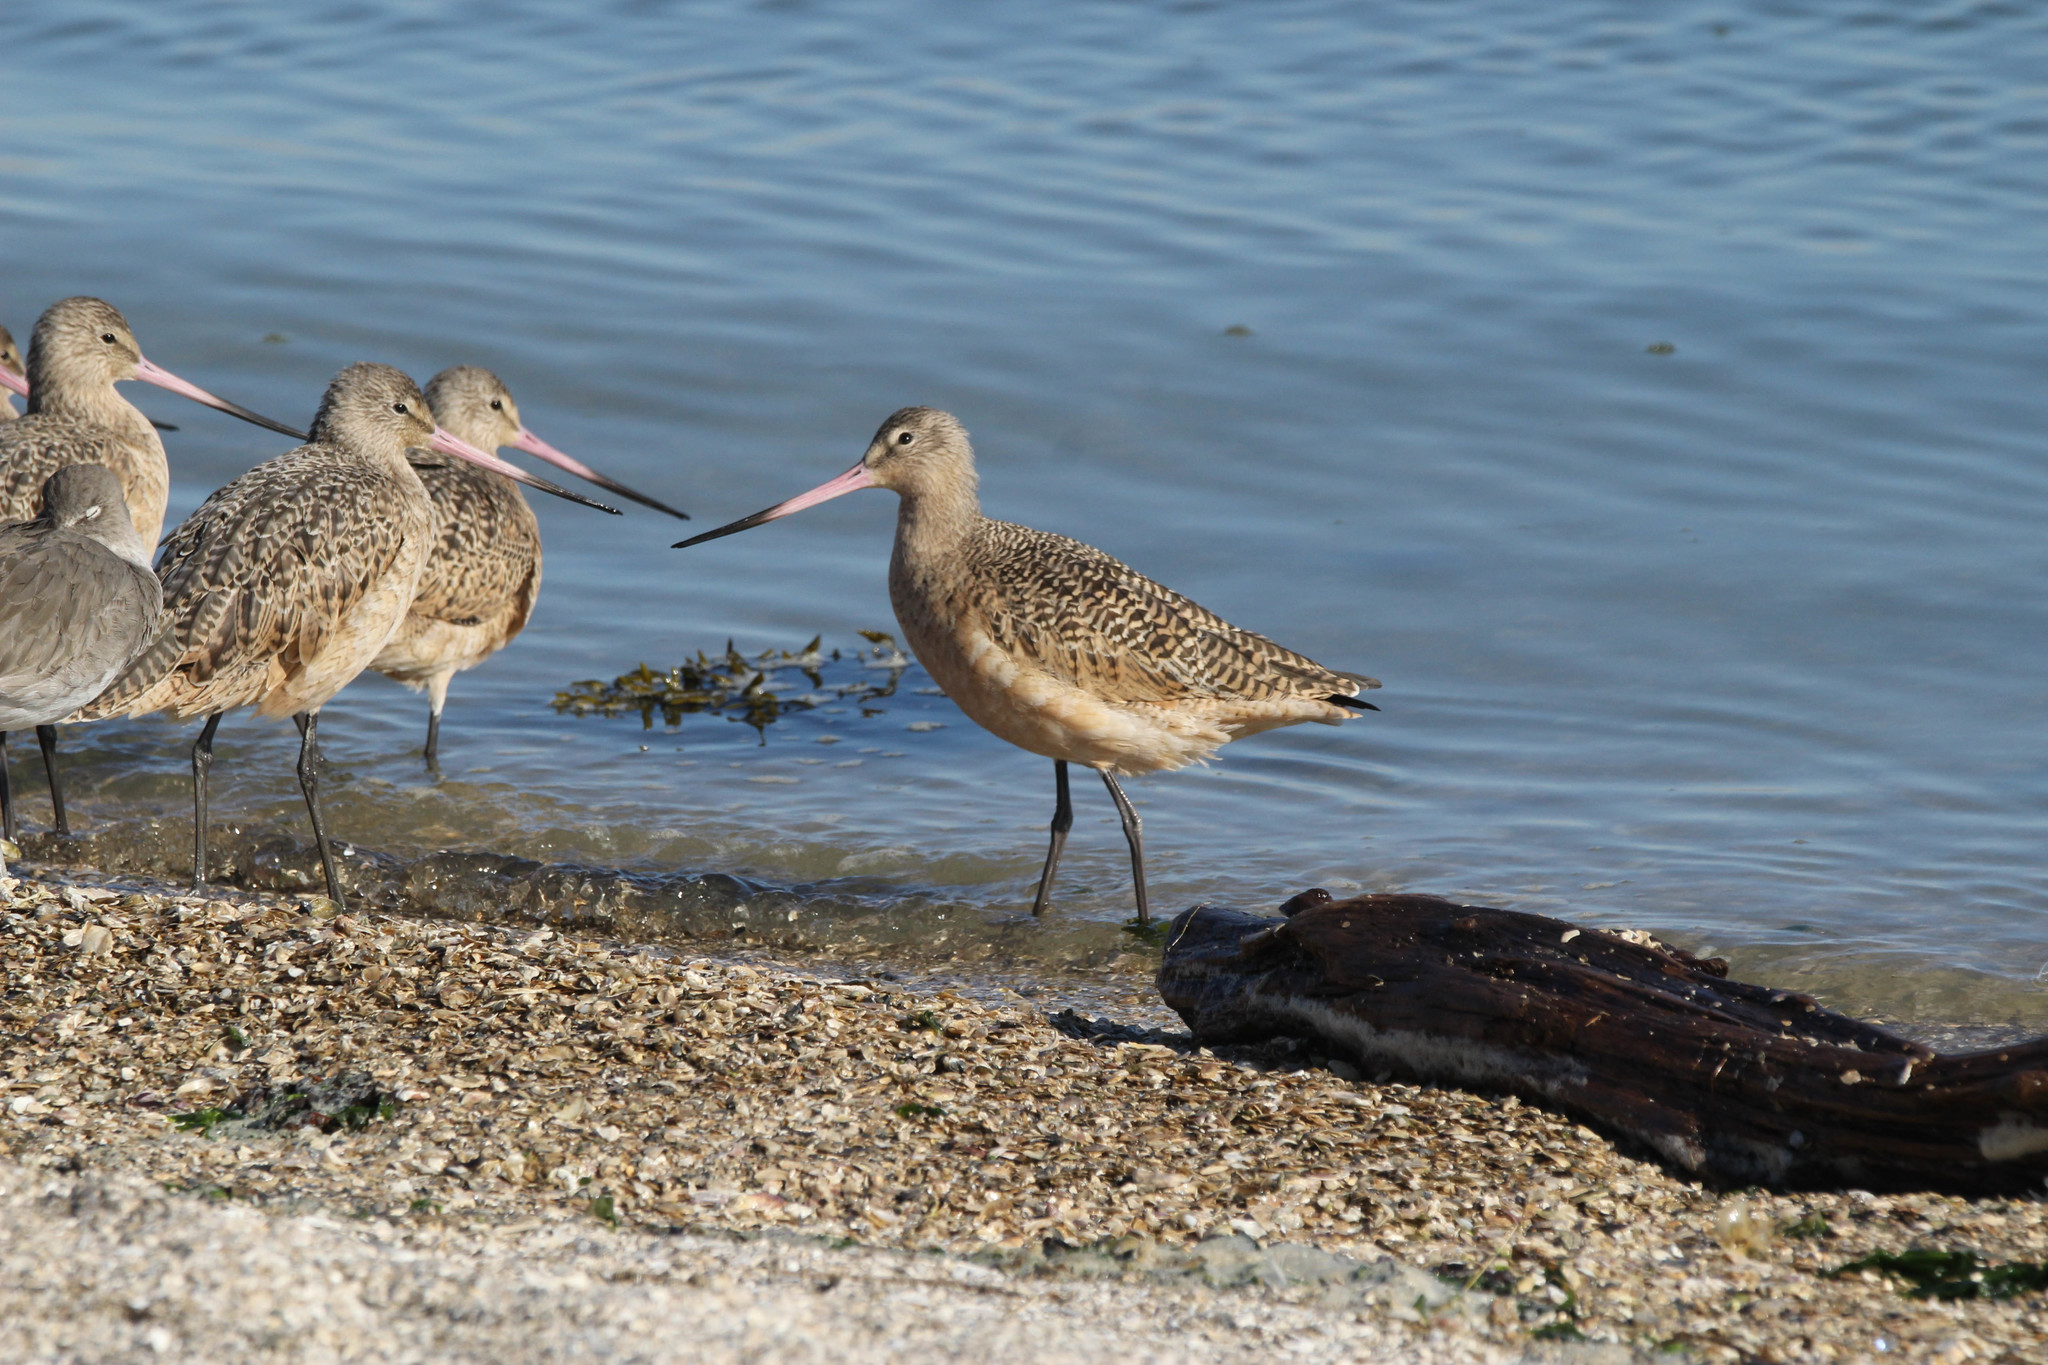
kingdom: Animalia
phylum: Chordata
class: Aves
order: Charadriiformes
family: Scolopacidae
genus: Limosa
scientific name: Limosa fedoa
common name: Marbled godwit
